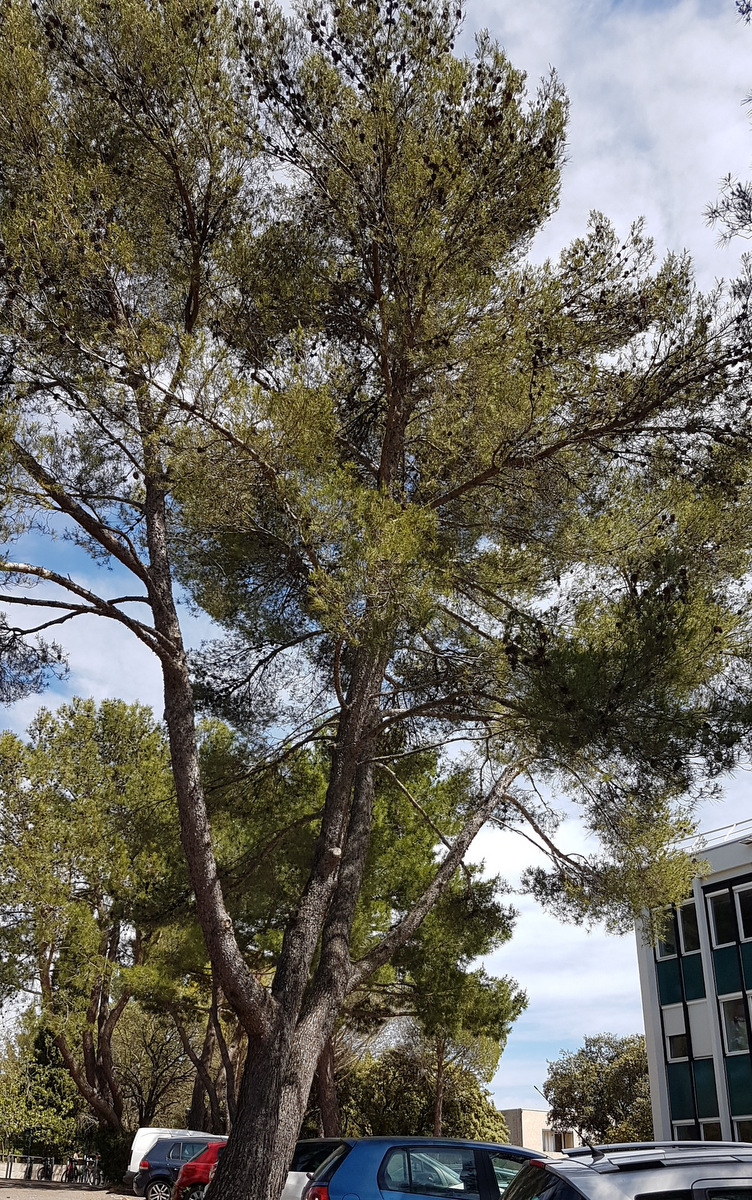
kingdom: Plantae
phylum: Tracheophyta
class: Pinopsida
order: Pinales
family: Pinaceae
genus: Pinus
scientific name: Pinus halepensis
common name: Aleppo pine
